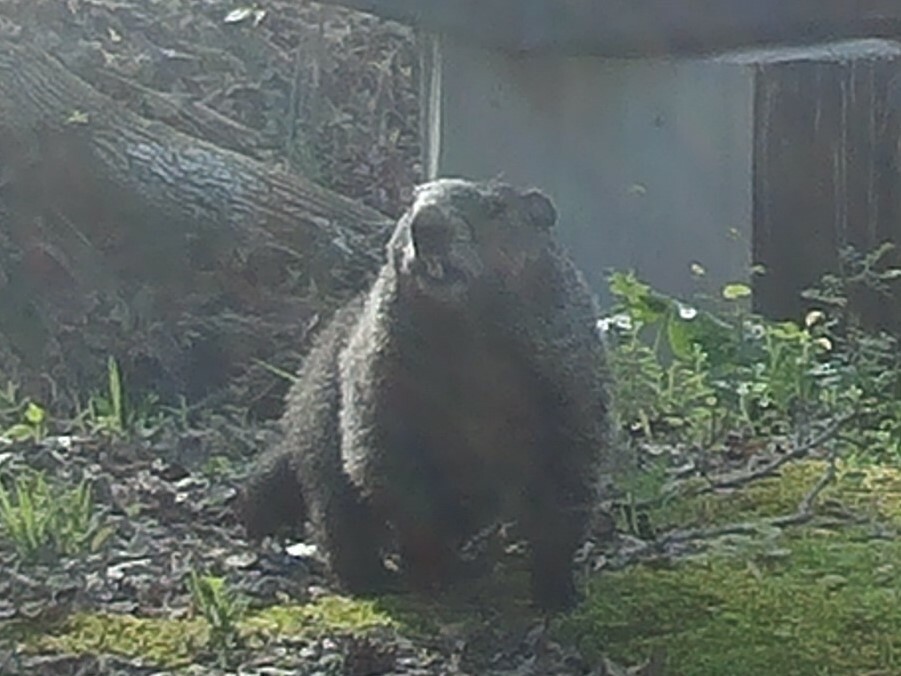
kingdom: Animalia
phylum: Chordata
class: Mammalia
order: Rodentia
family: Sciuridae
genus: Marmota
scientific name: Marmota monax
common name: Groundhog
